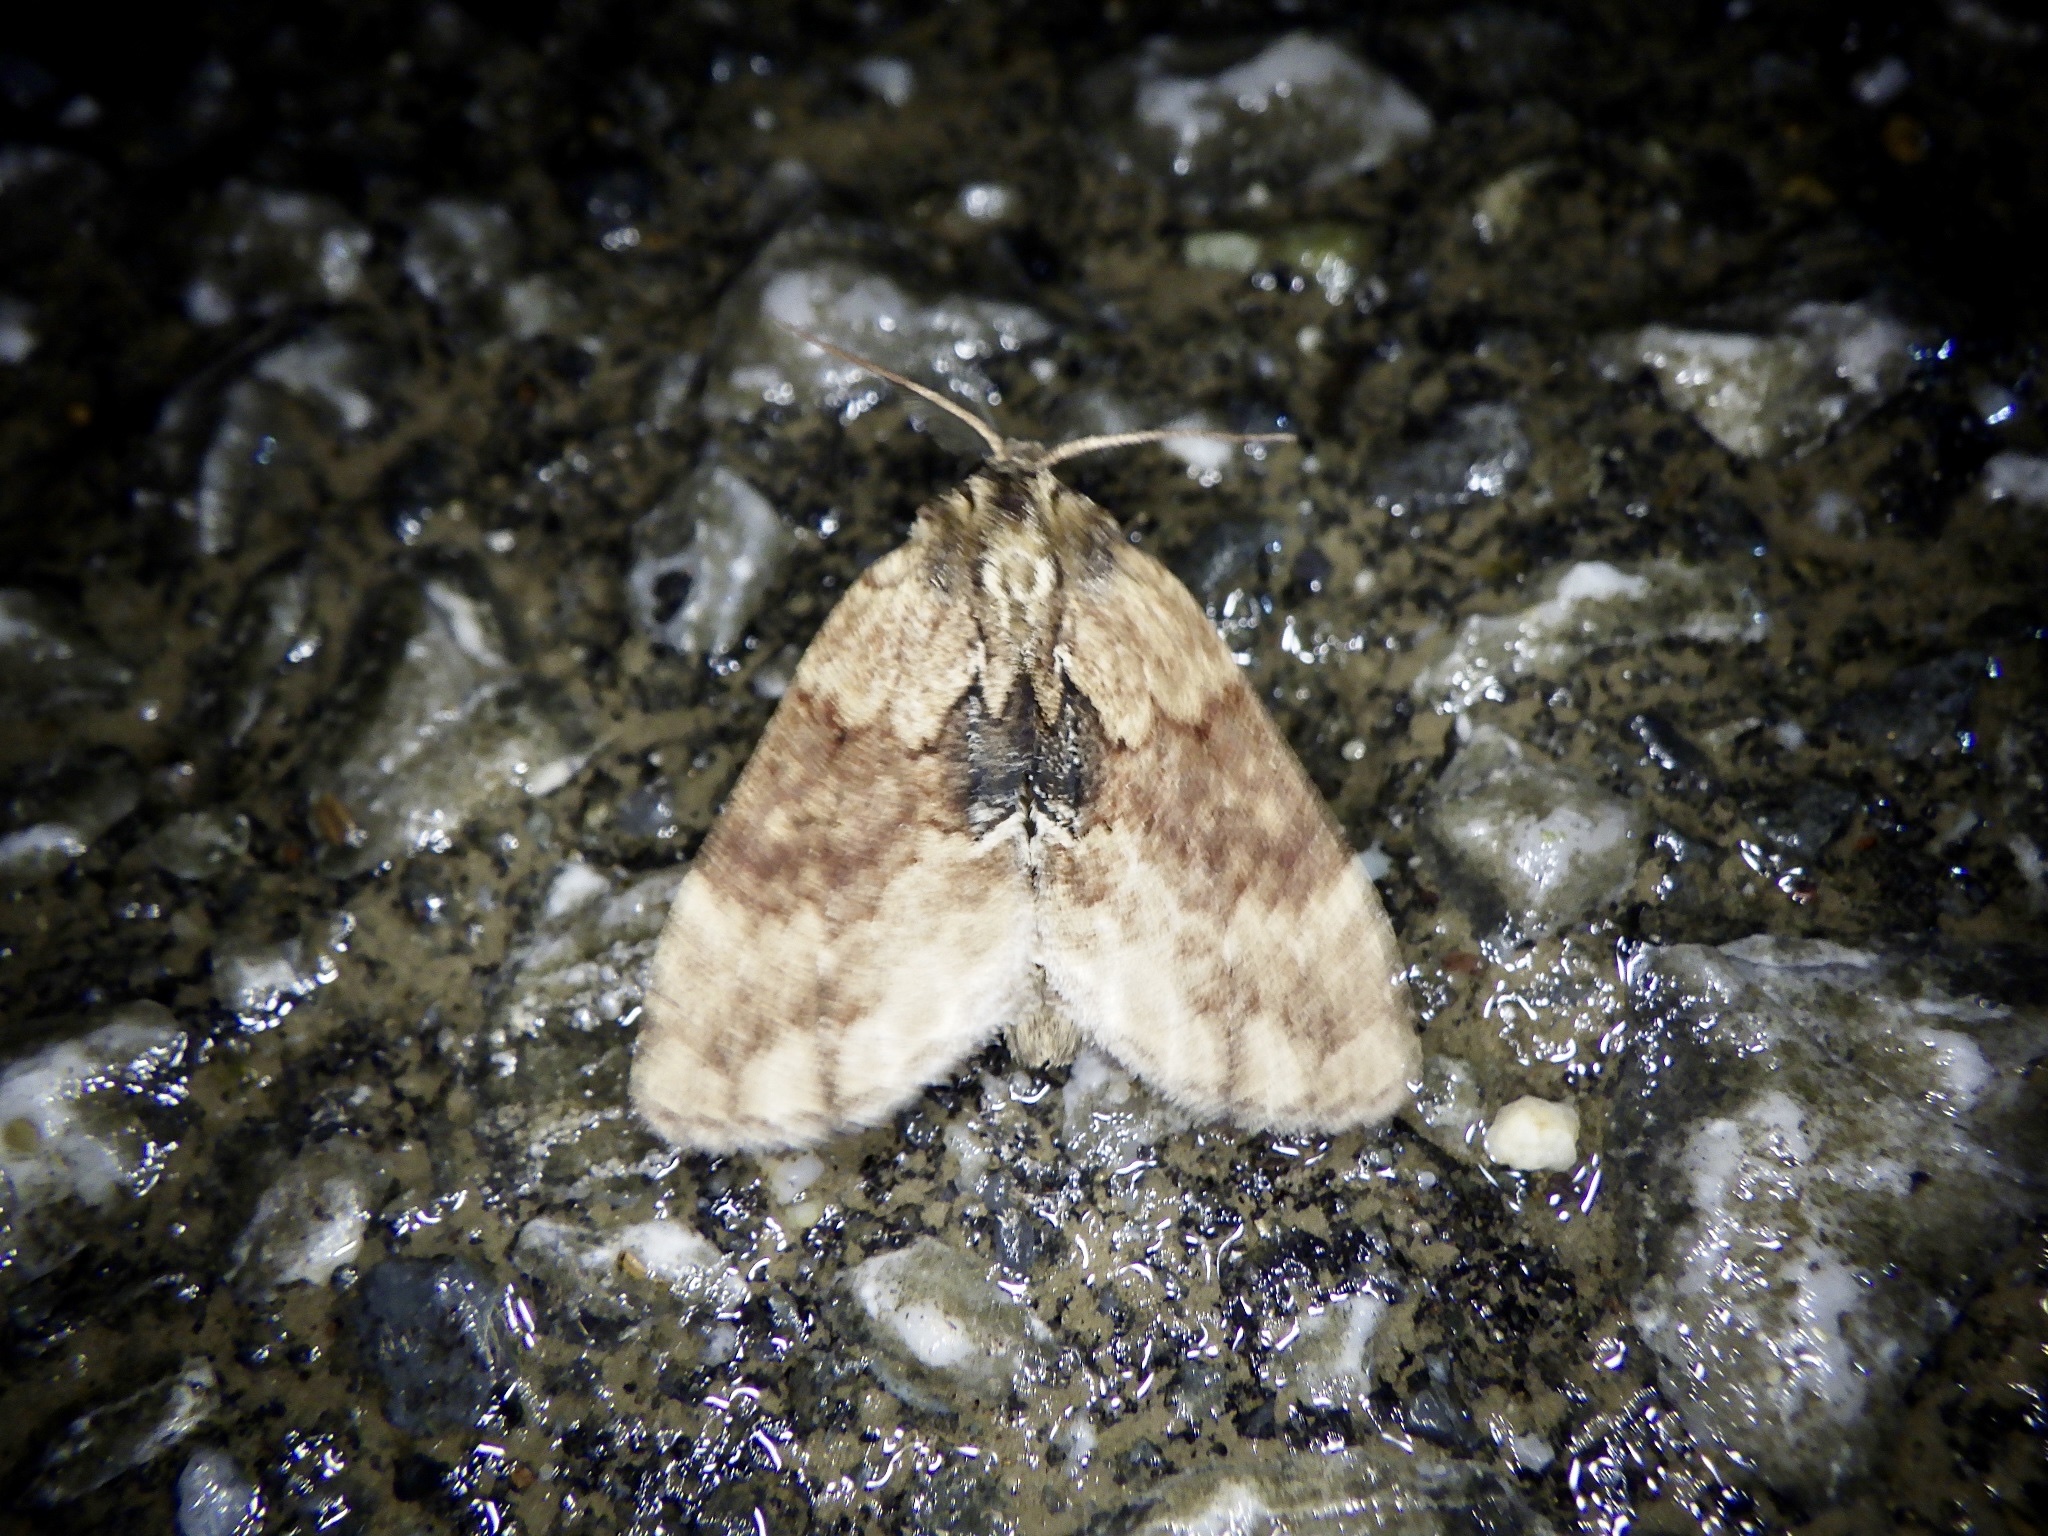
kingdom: Animalia
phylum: Arthropoda
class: Insecta
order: Lepidoptera
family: Notodontidae
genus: Lophontosia
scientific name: Lophontosia
